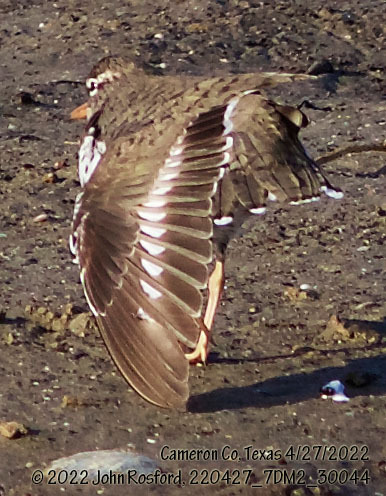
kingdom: Animalia
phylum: Chordata
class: Aves
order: Charadriiformes
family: Scolopacidae
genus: Actitis
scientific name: Actitis macularius
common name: Spotted sandpiper
